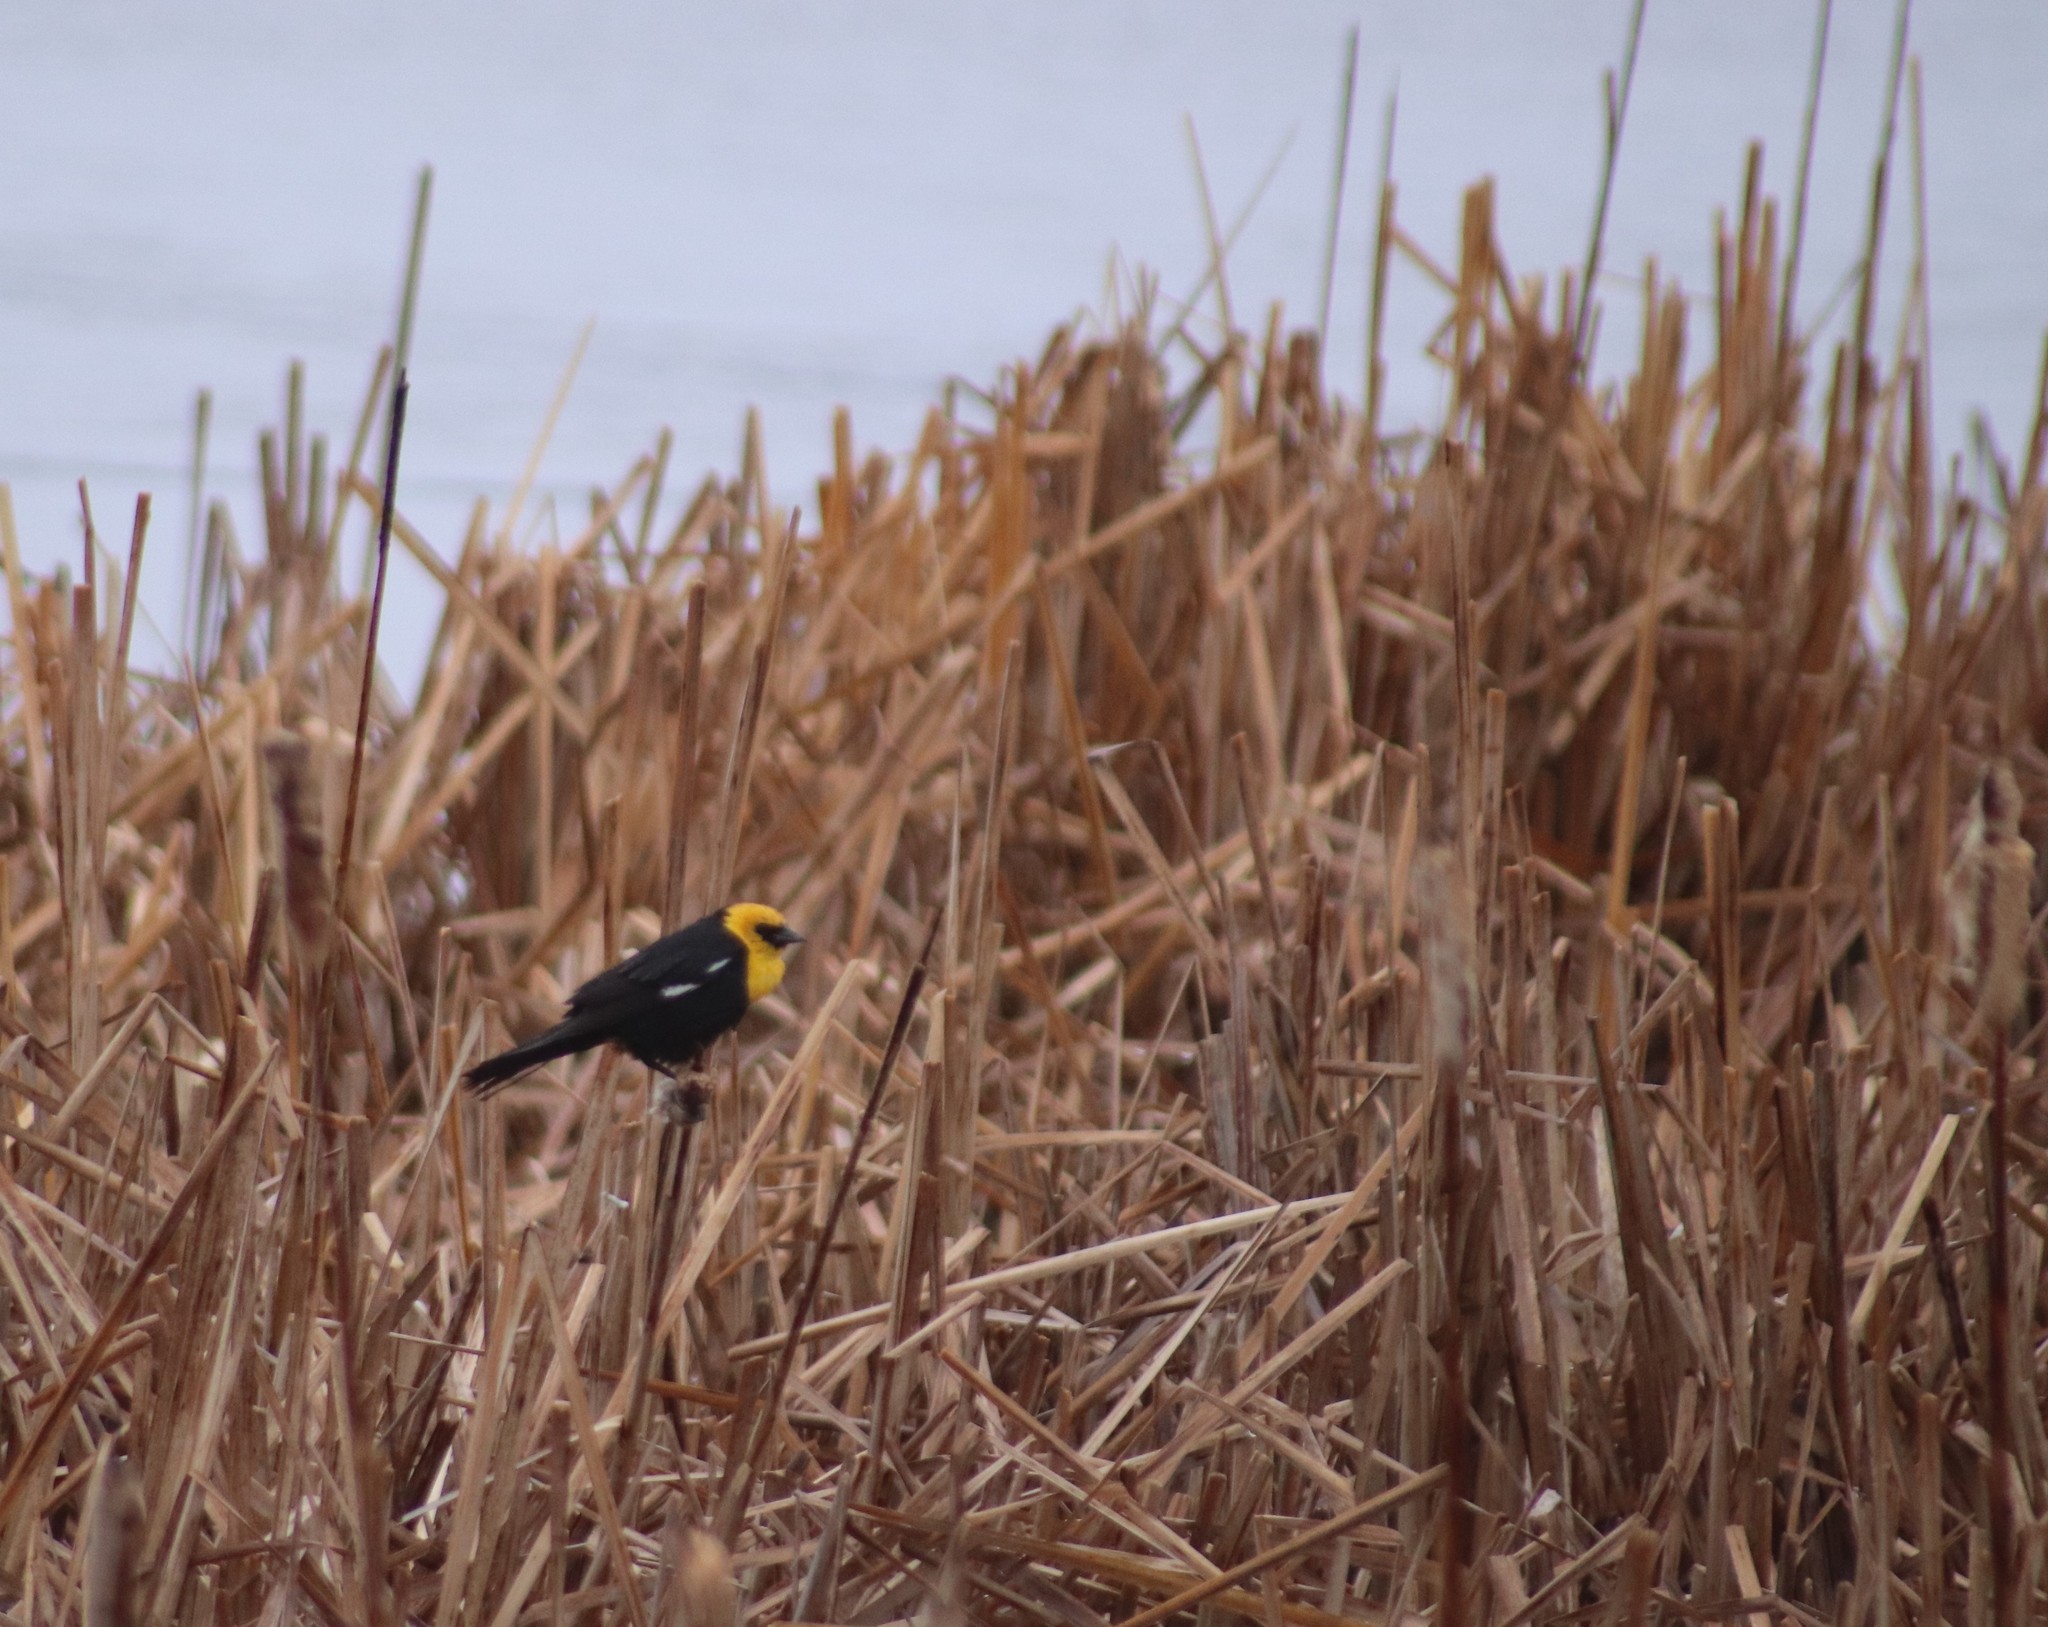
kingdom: Animalia
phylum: Chordata
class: Aves
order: Passeriformes
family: Icteridae
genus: Xanthocephalus
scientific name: Xanthocephalus xanthocephalus
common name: Yellow-headed blackbird
